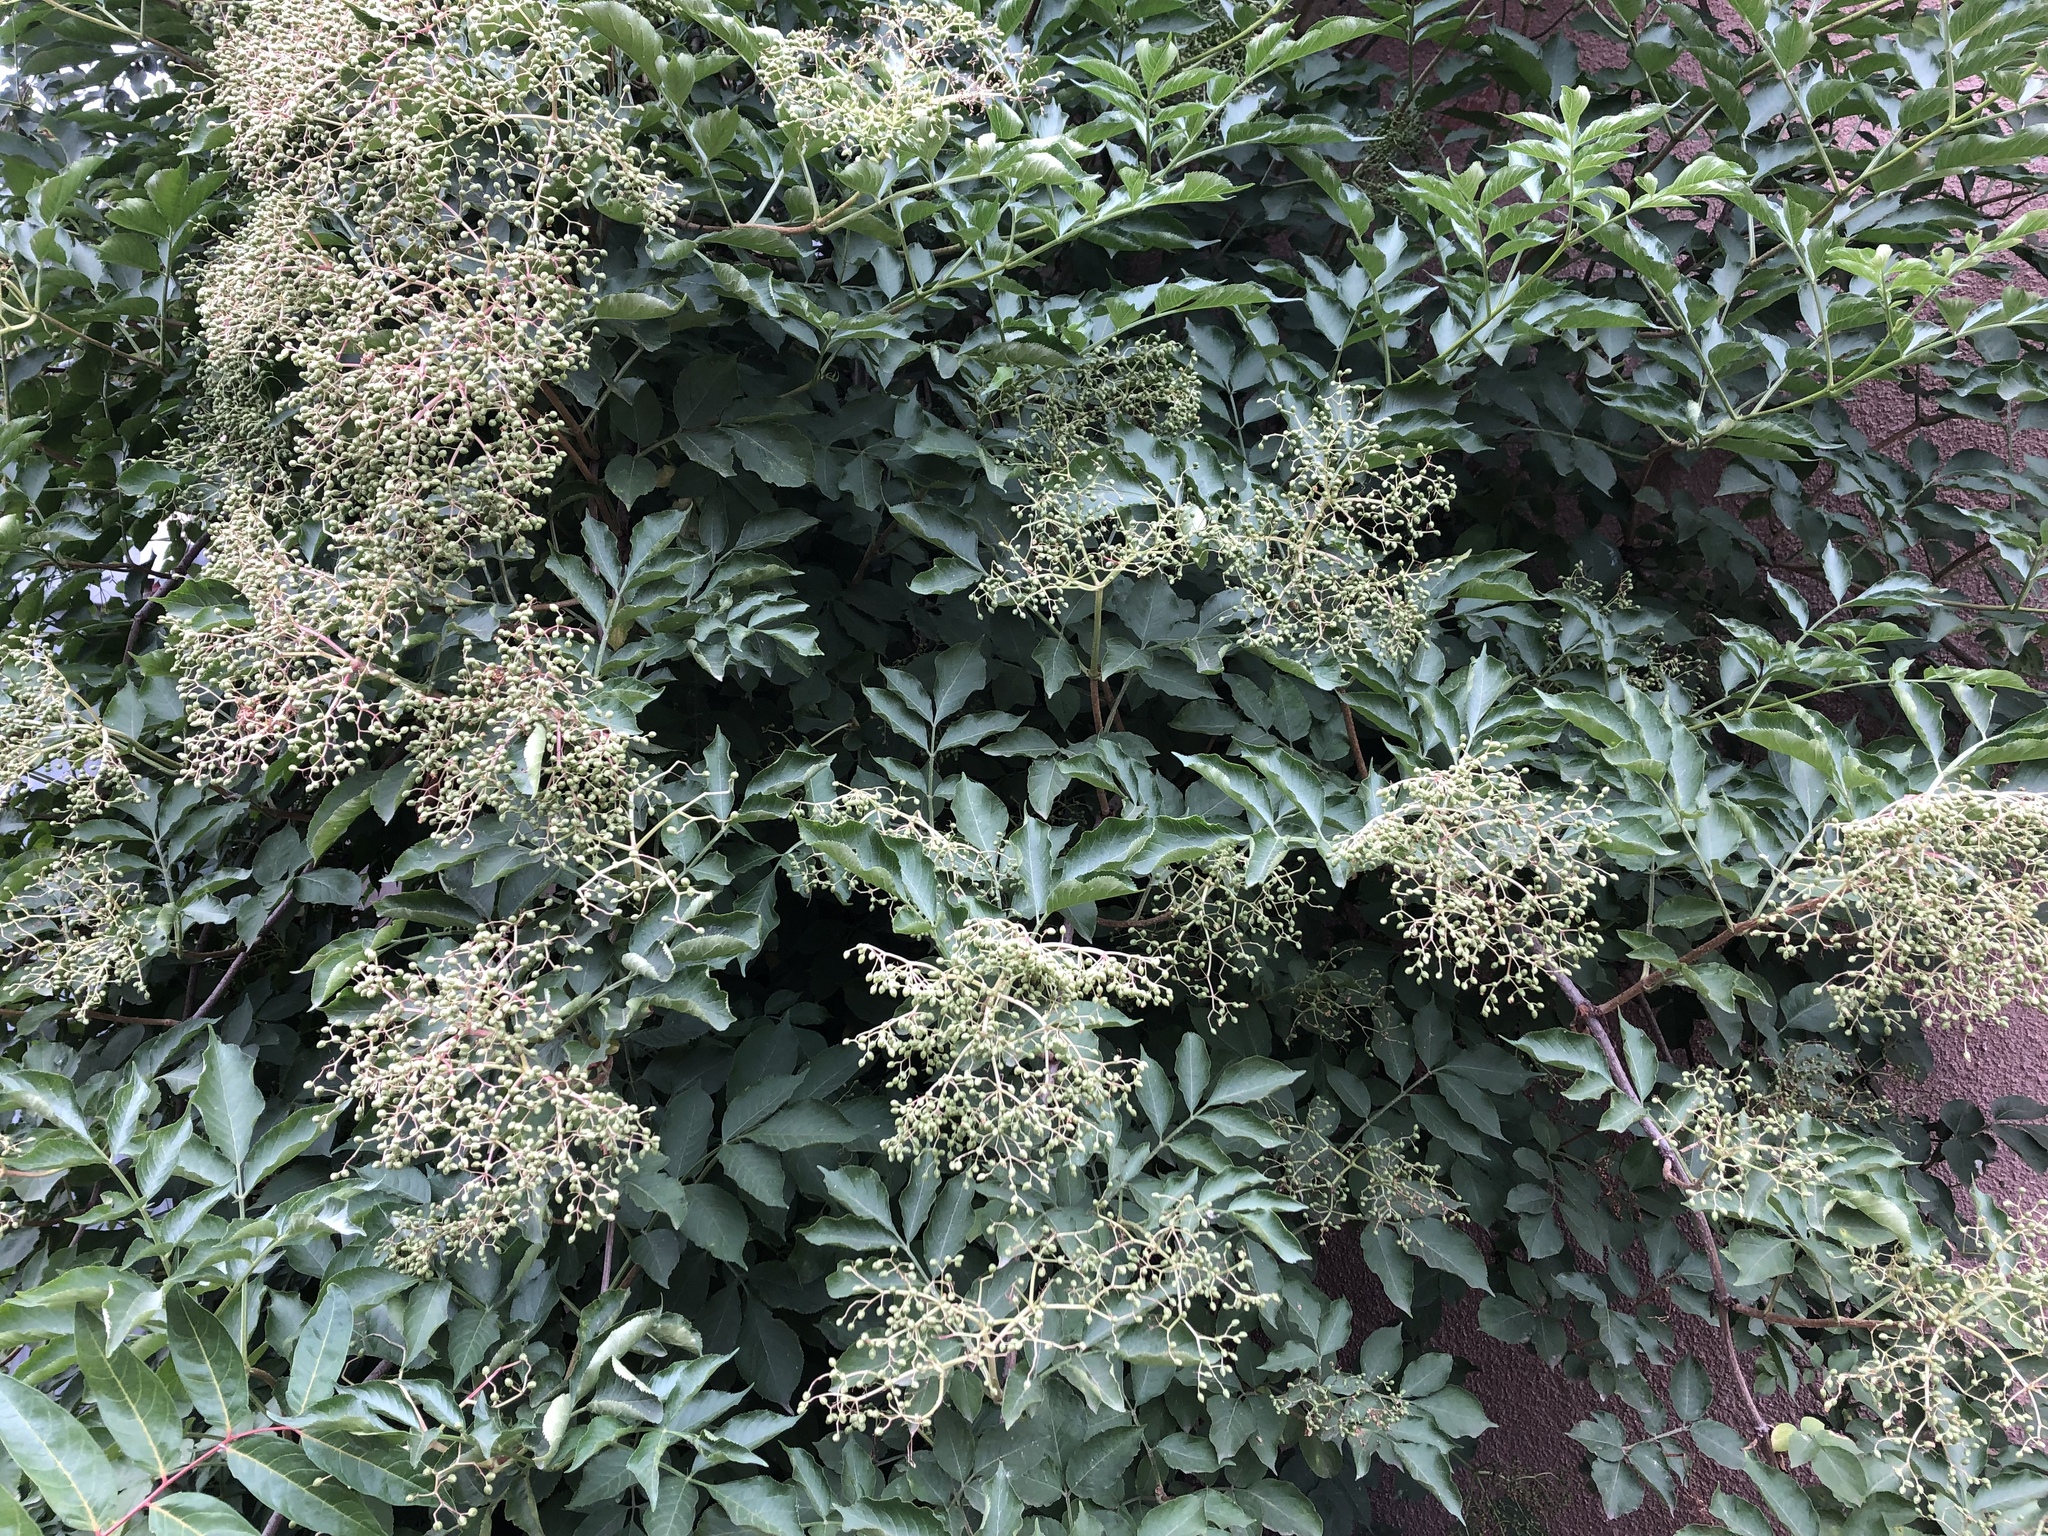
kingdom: Plantae
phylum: Tracheophyta
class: Magnoliopsida
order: Dipsacales
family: Viburnaceae
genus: Sambucus
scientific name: Sambucus nigra
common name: Elder
